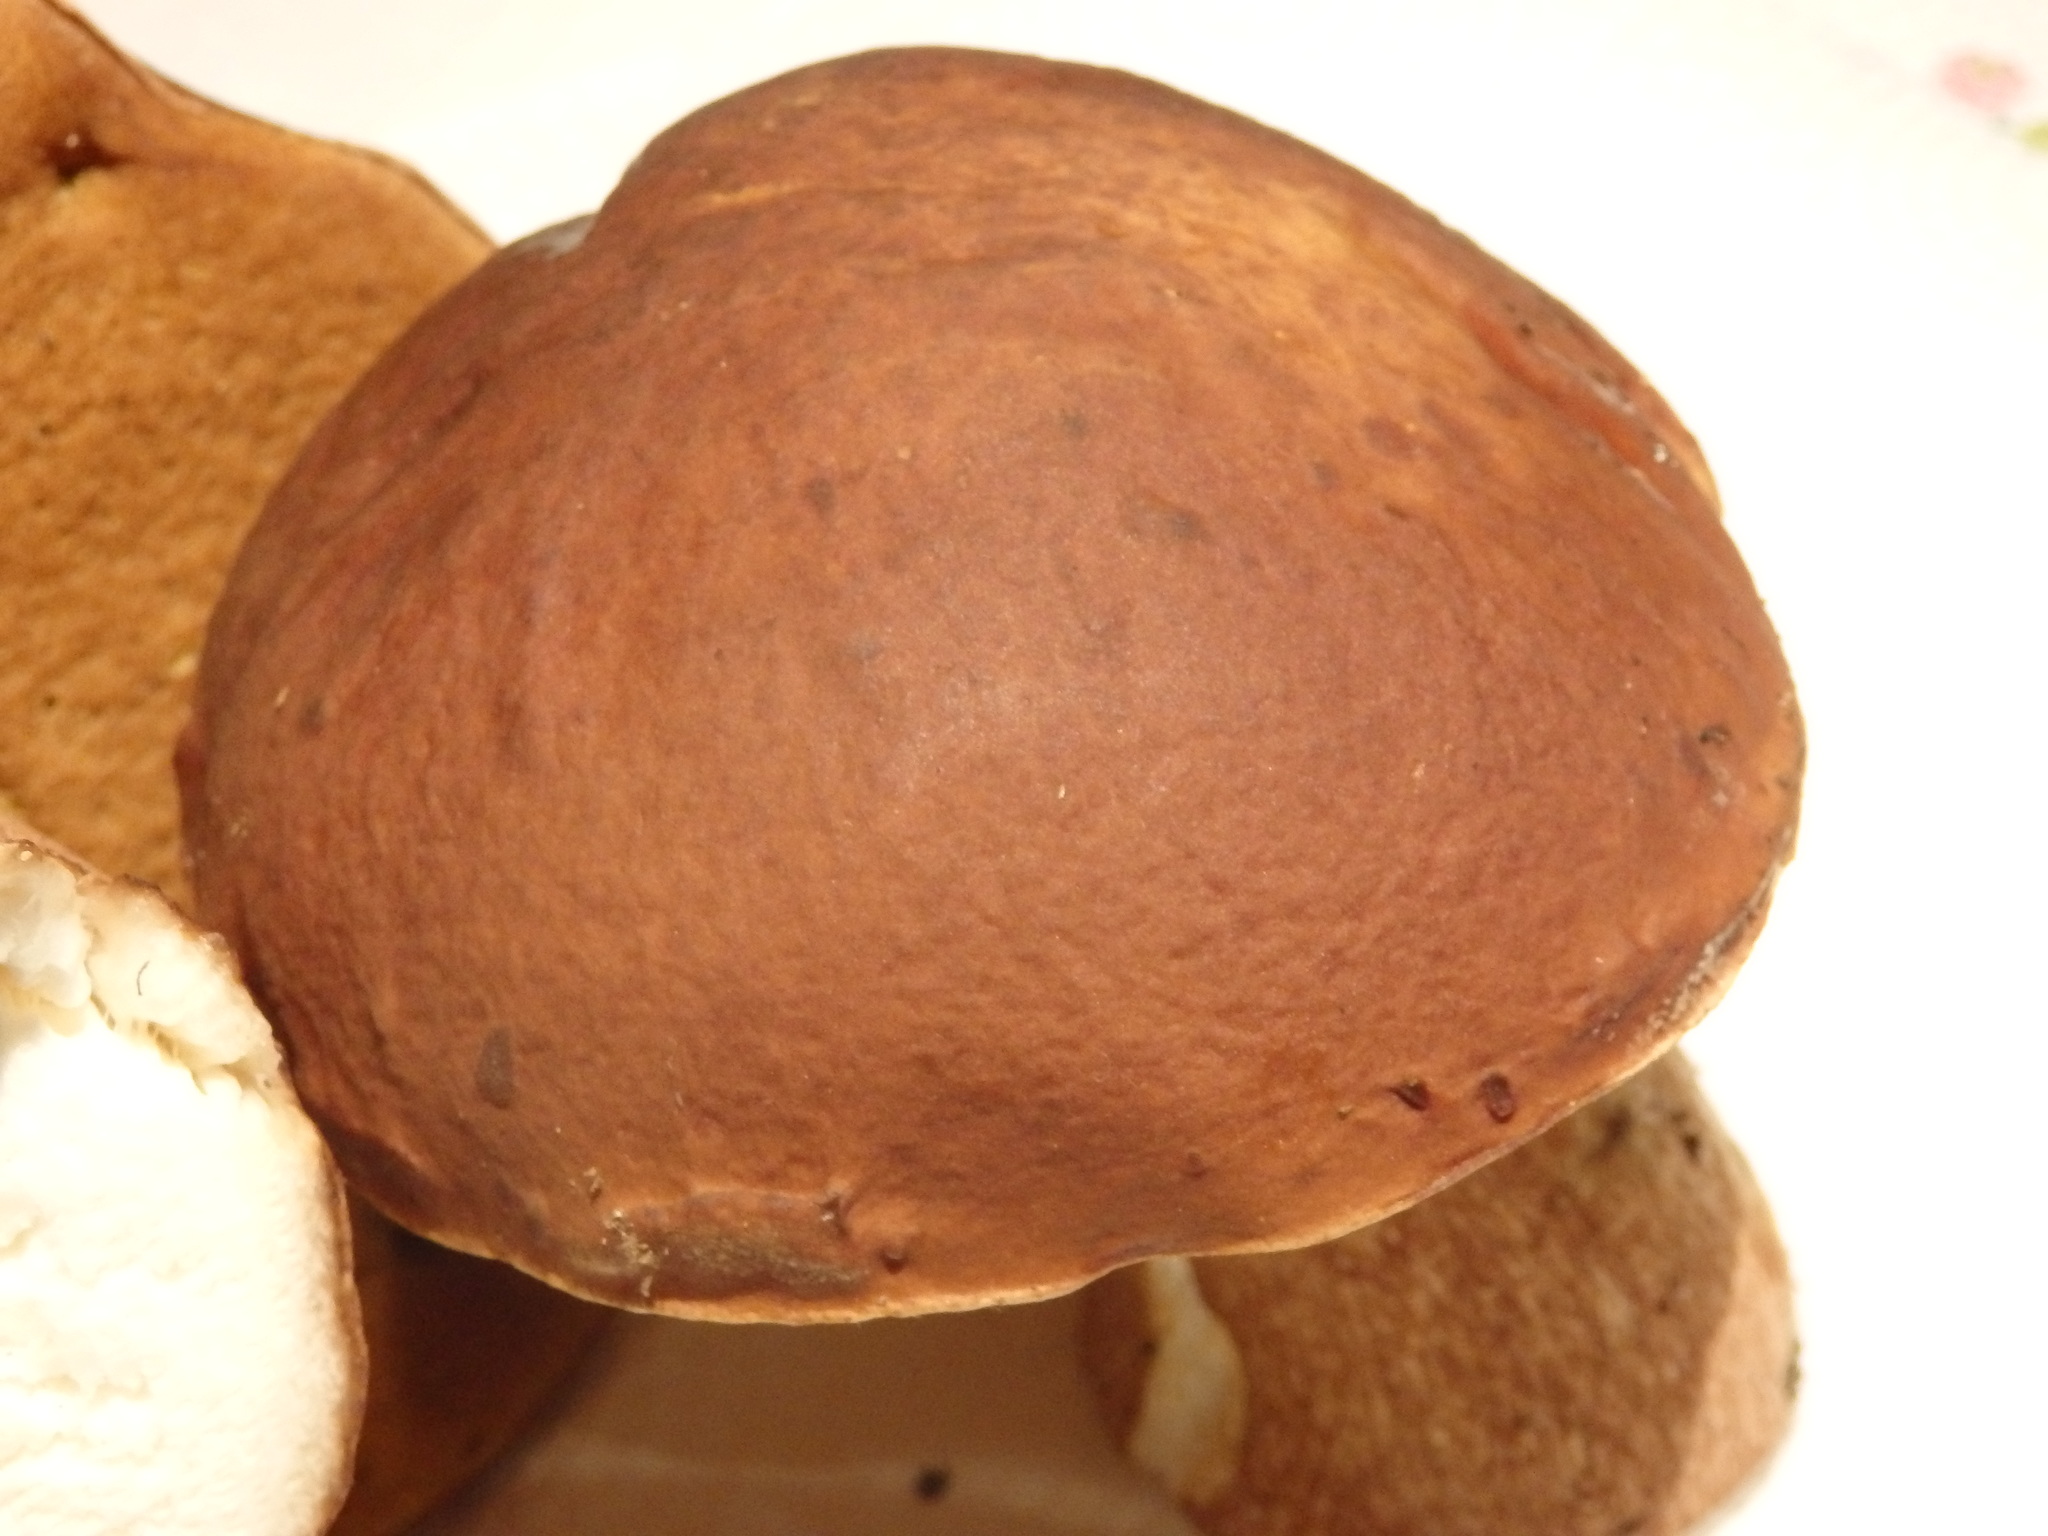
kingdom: Fungi
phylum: Basidiomycota
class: Agaricomycetes
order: Boletales
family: Boletaceae
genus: Boletus
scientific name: Boletus edulis
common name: Cep
